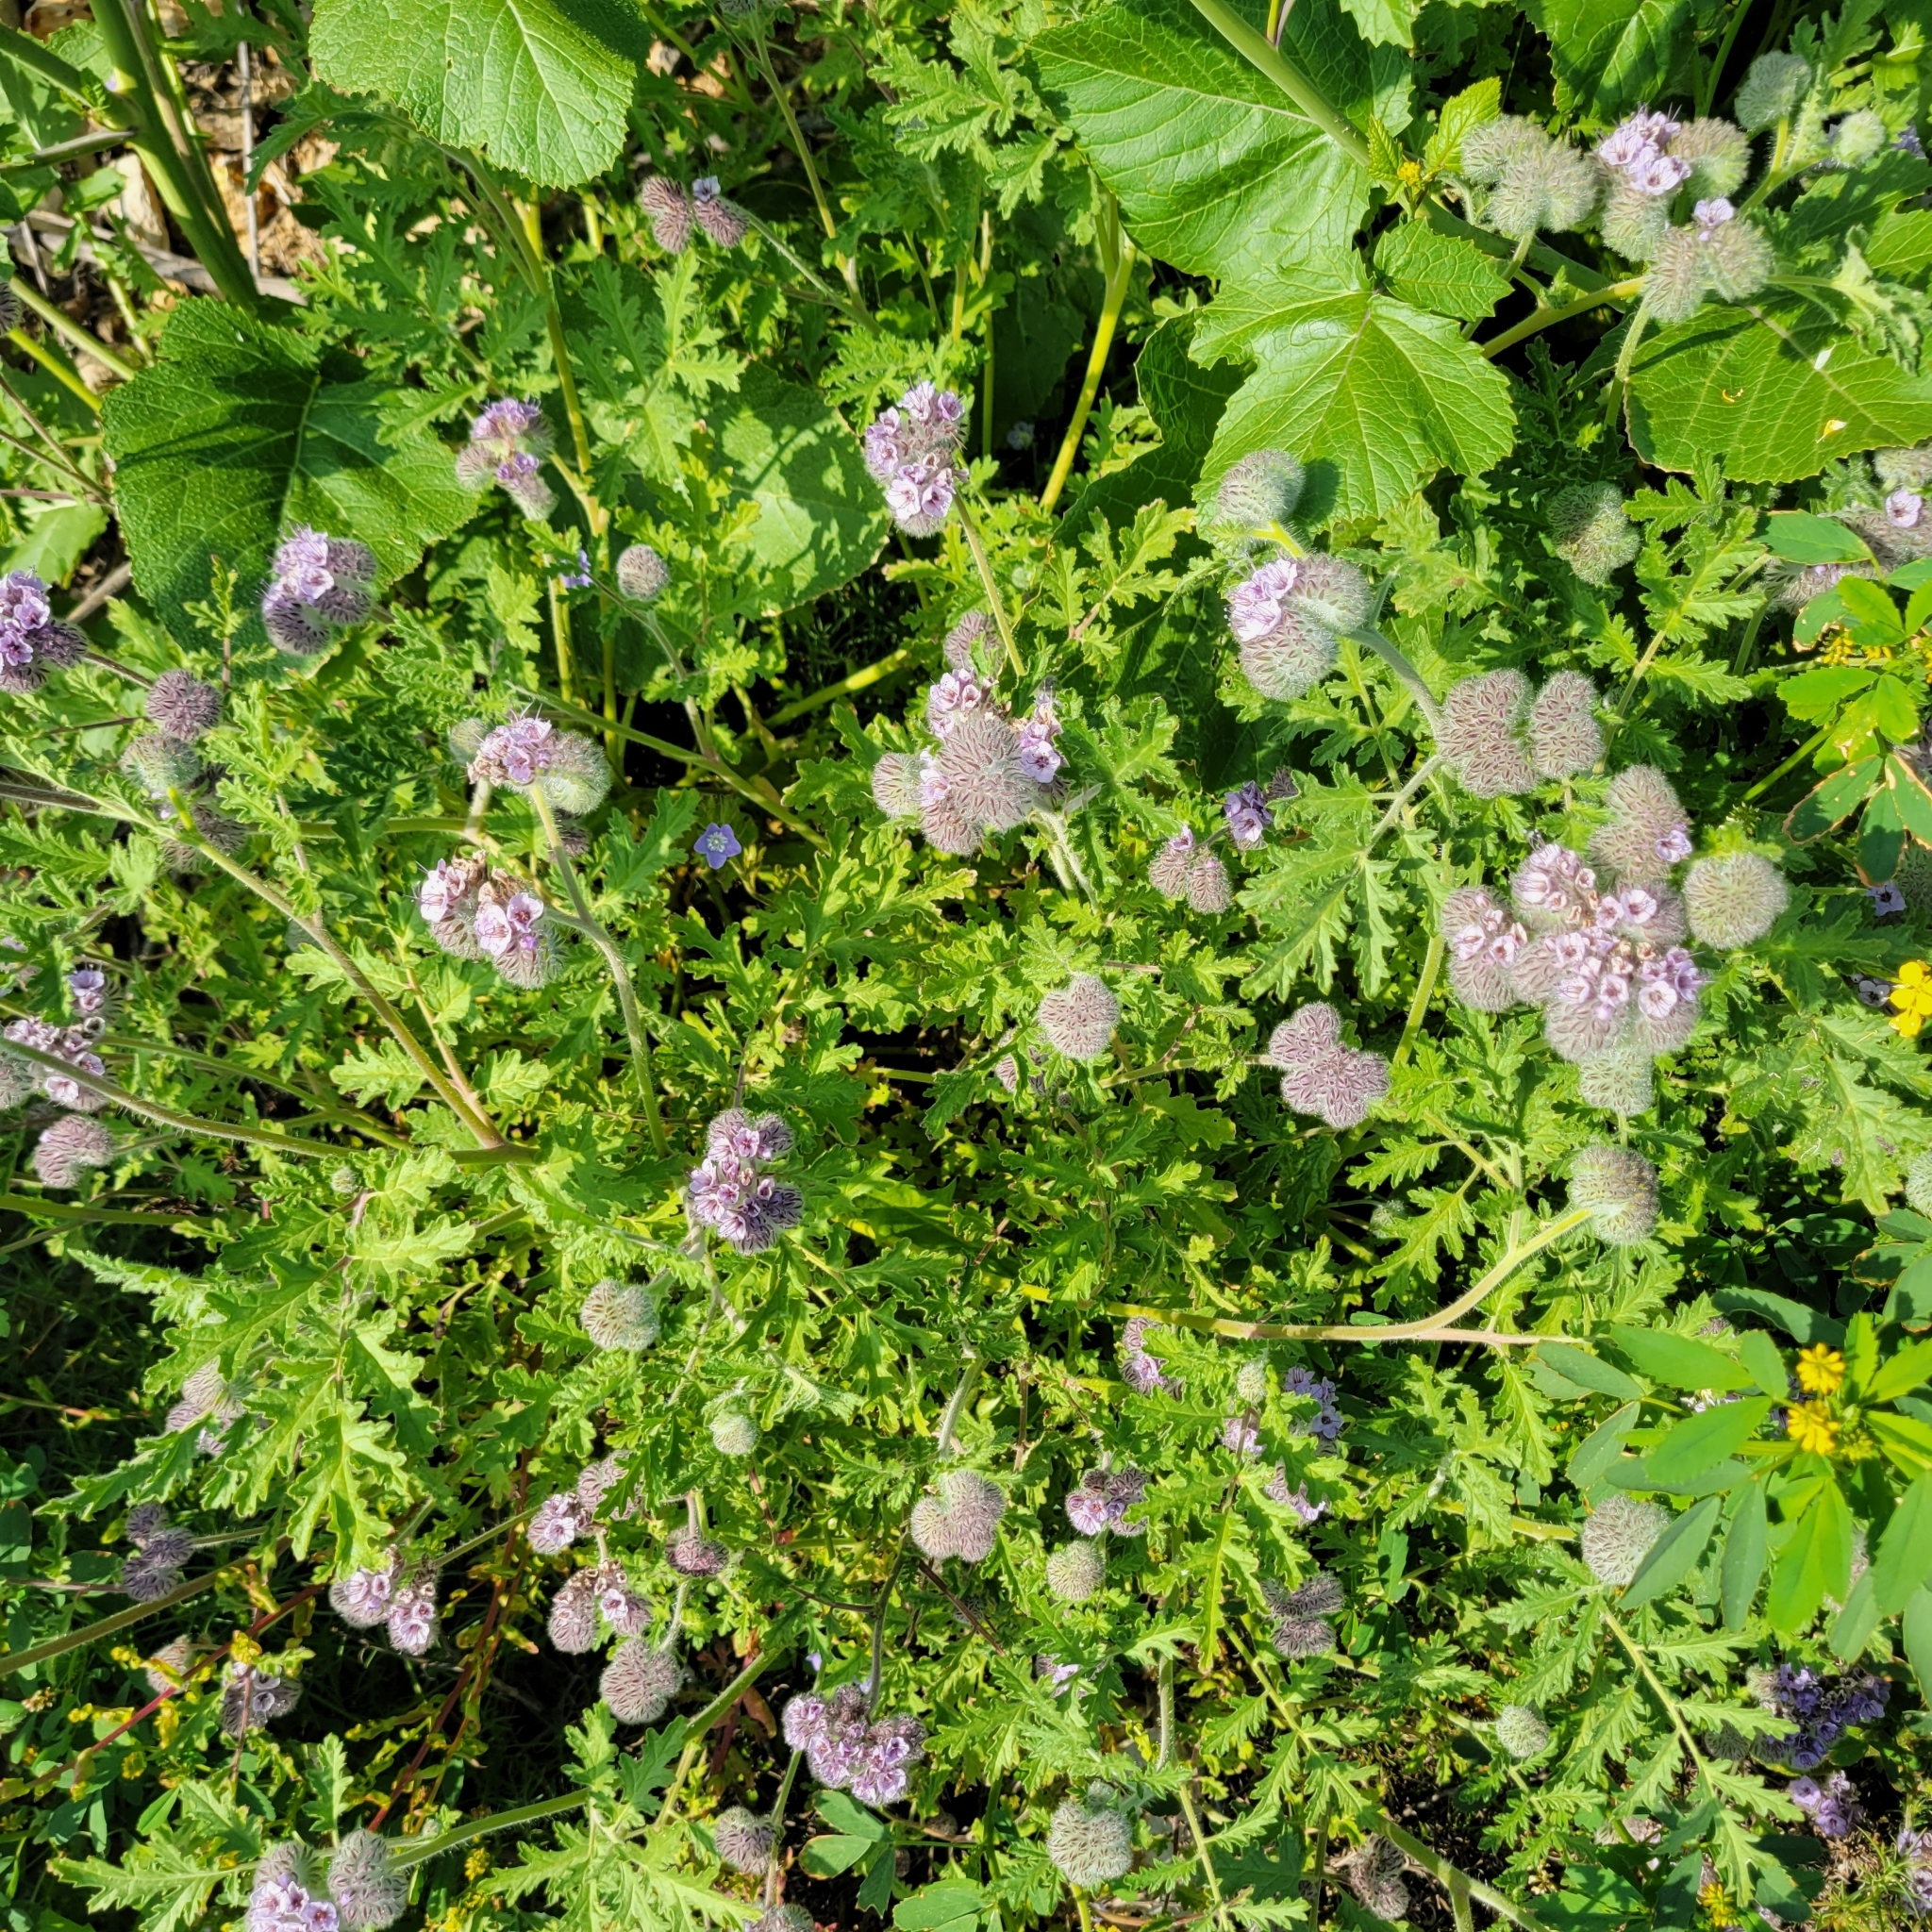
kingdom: Plantae
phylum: Tracheophyta
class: Magnoliopsida
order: Boraginales
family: Hydrophyllaceae
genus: Phacelia
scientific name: Phacelia hubbyi
